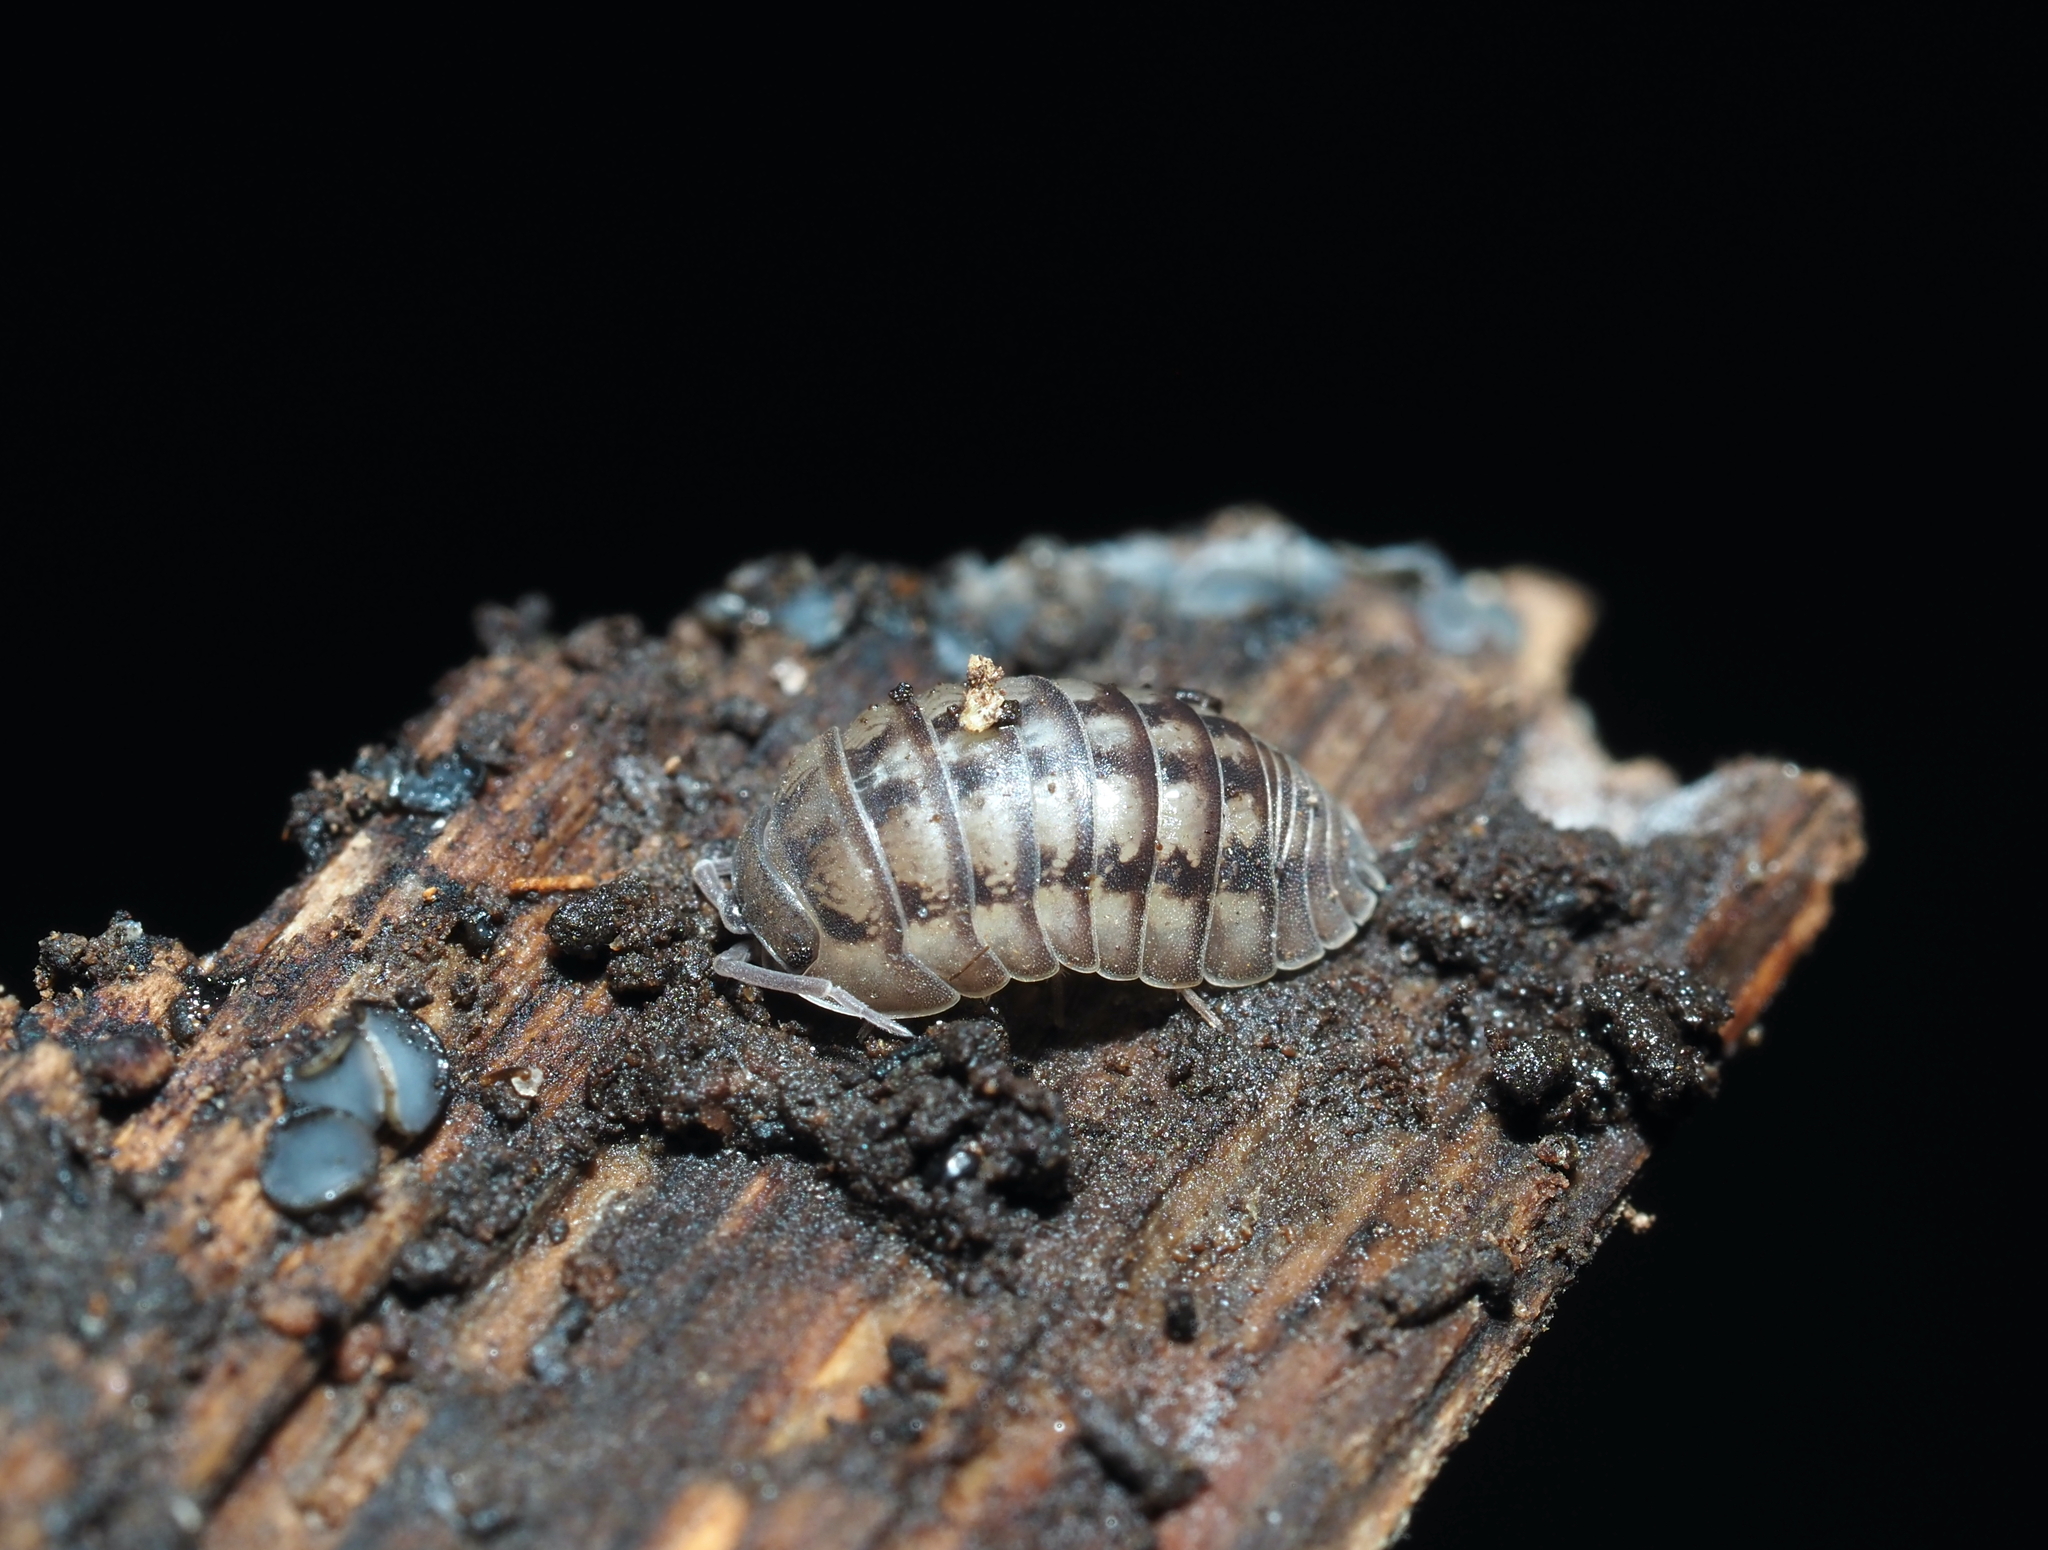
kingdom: Animalia
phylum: Arthropoda
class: Malacostraca
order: Isopoda
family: Armadillidiidae
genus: Armadillidium
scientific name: Armadillidium nasatum
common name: Isopod
